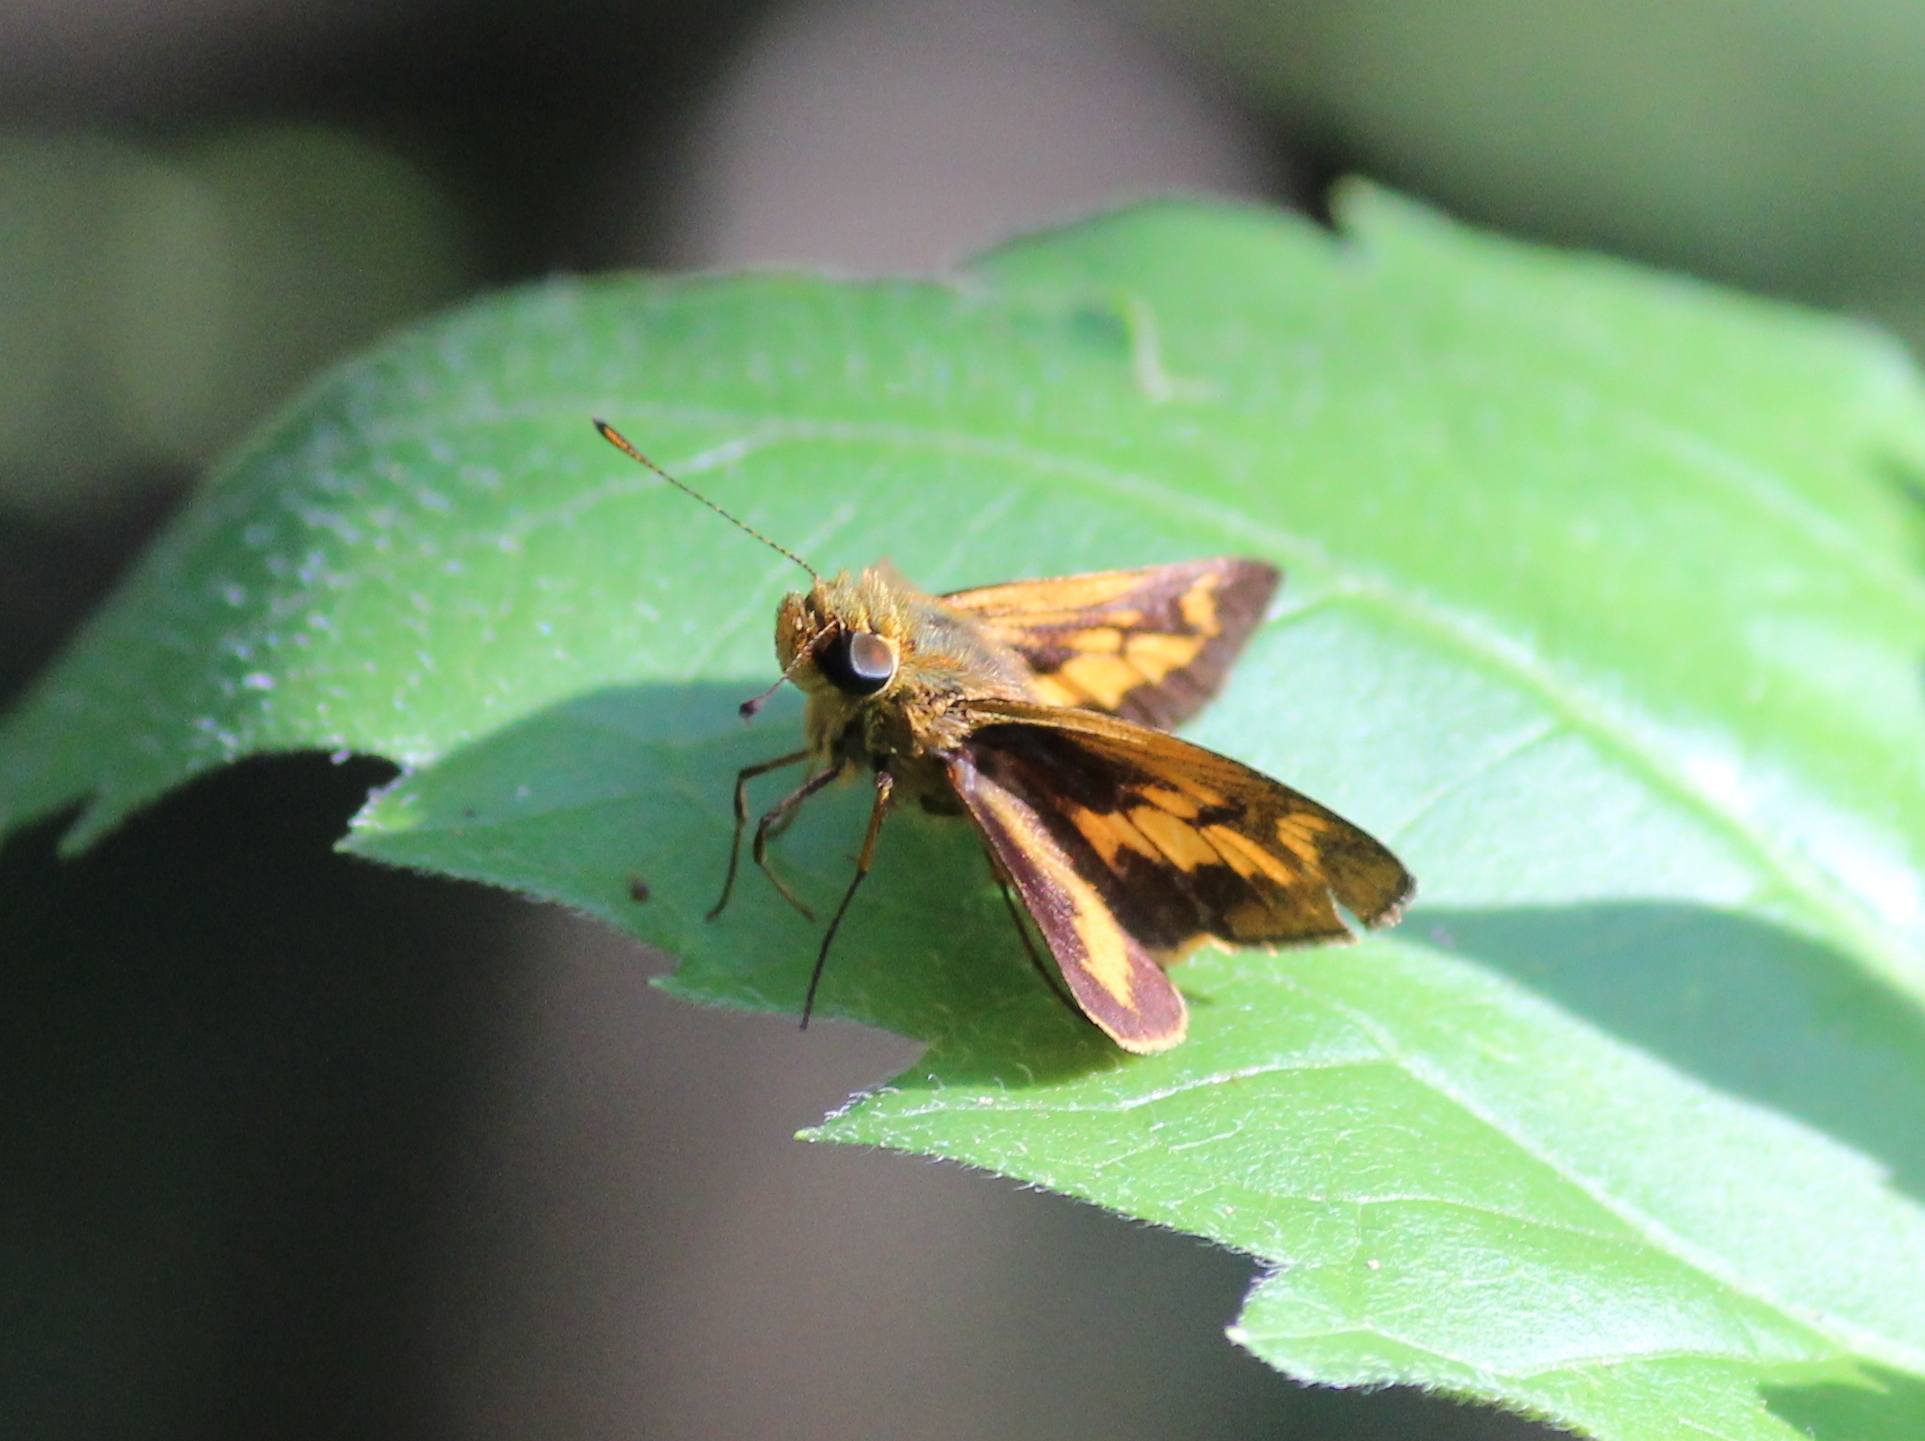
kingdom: Animalia
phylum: Arthropoda
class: Insecta
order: Lepidoptera
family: Hesperiidae
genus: Oriens
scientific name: Oriens goloides
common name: Smaller dartlet
